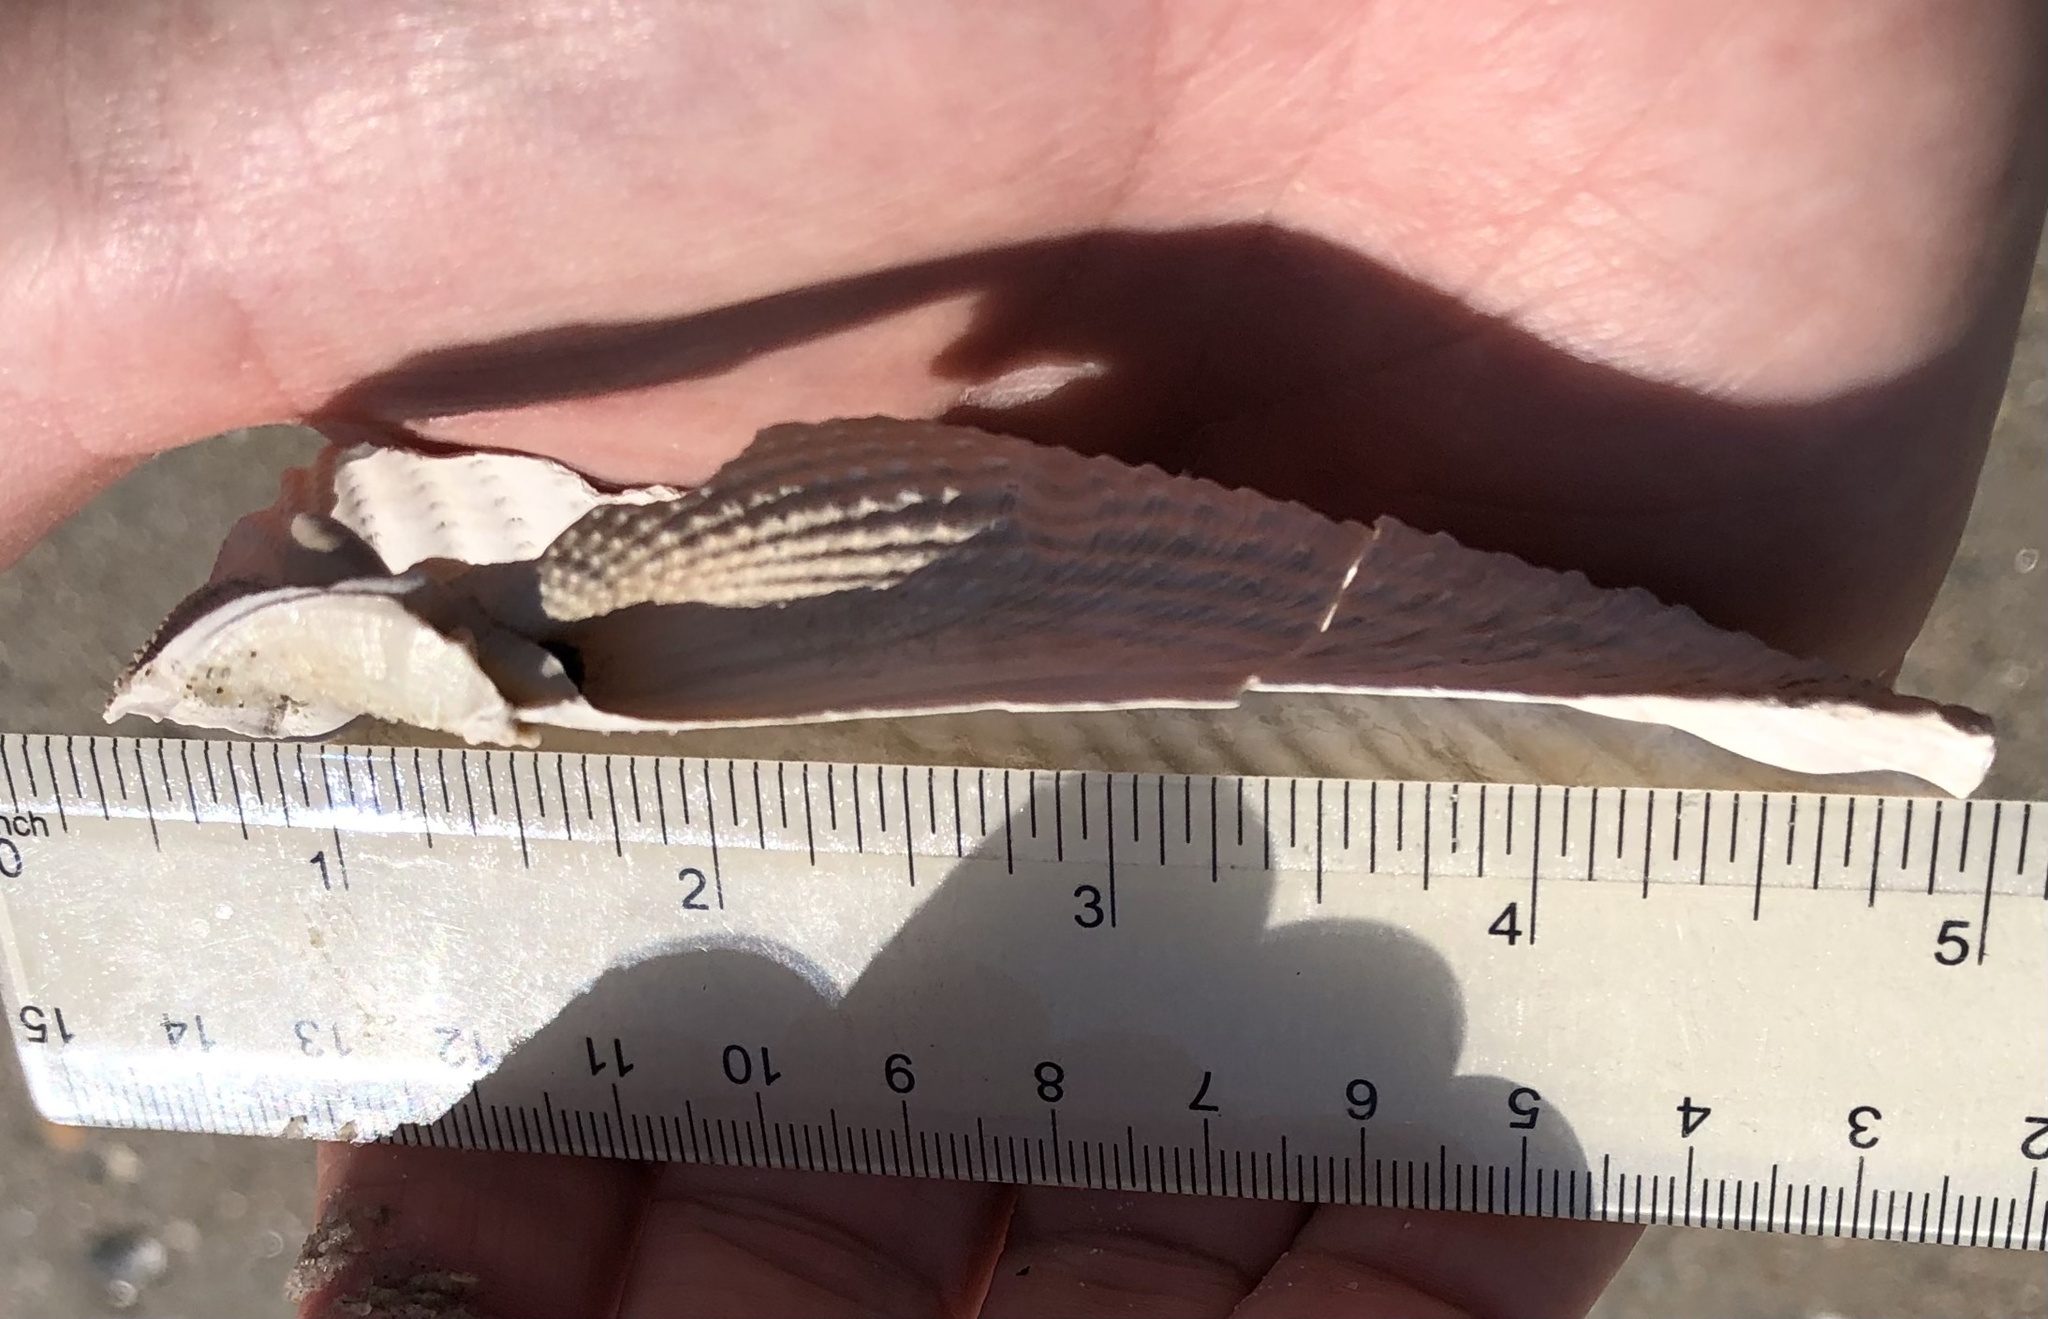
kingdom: Animalia
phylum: Mollusca
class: Bivalvia
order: Myida
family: Pholadidae
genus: Cyrtopleura
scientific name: Cyrtopleura costata
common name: Angel wing
